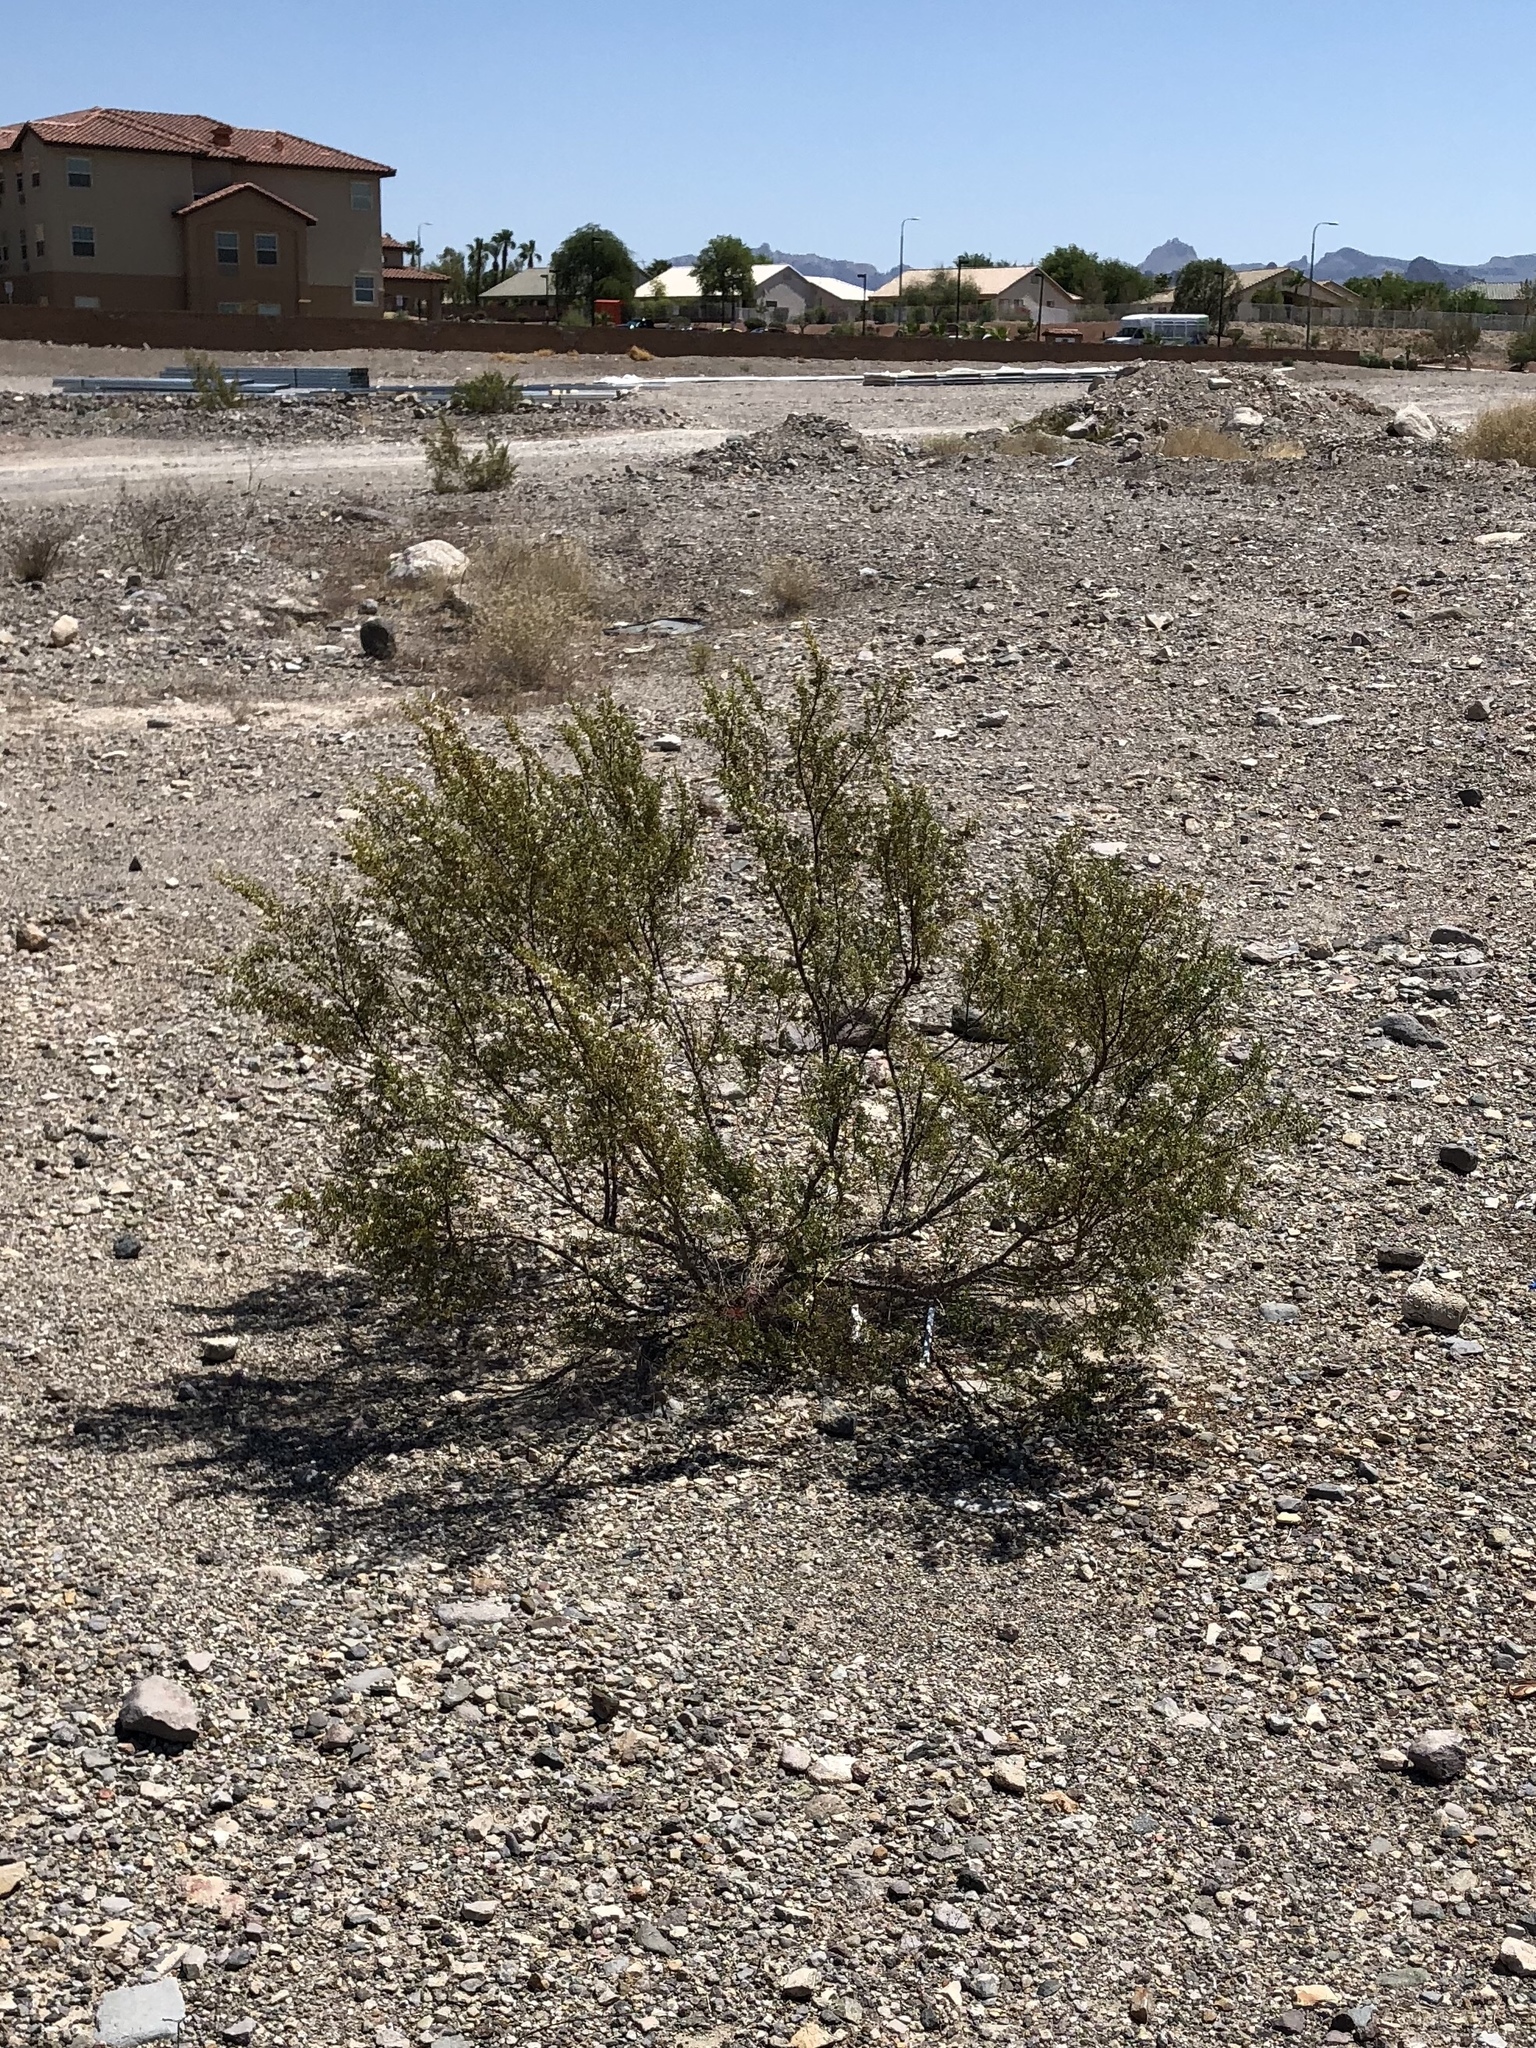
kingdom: Plantae
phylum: Tracheophyta
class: Magnoliopsida
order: Zygophyllales
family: Zygophyllaceae
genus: Larrea
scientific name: Larrea tridentata
